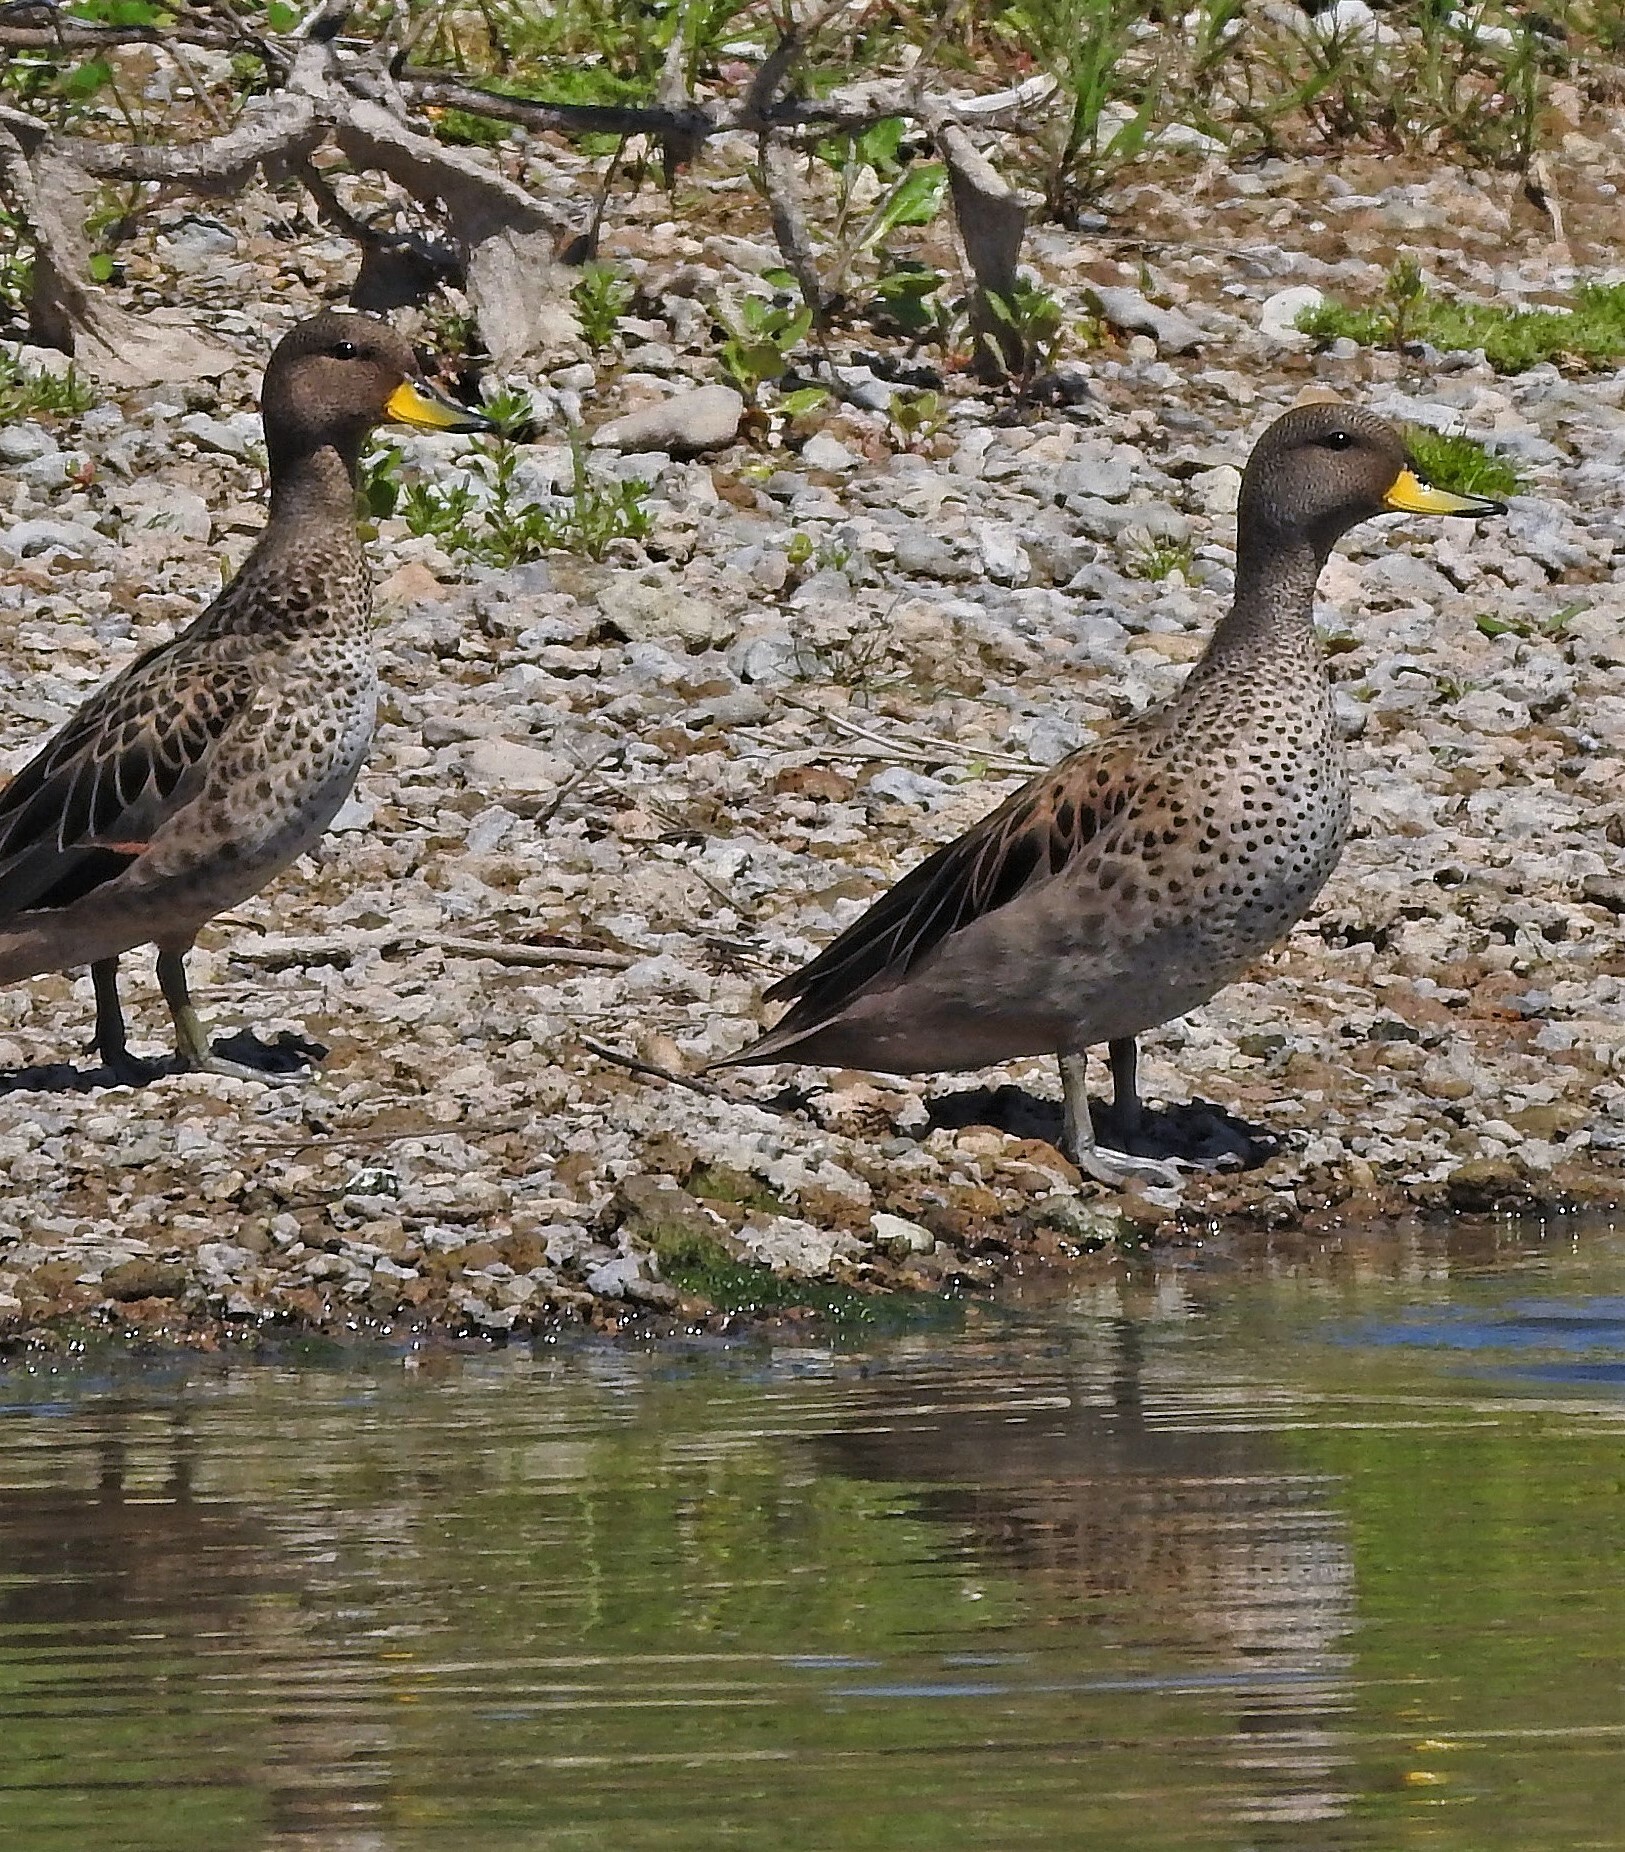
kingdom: Animalia
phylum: Chordata
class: Aves
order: Anseriformes
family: Anatidae
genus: Anas
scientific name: Anas flavirostris
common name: Yellow-billed teal
